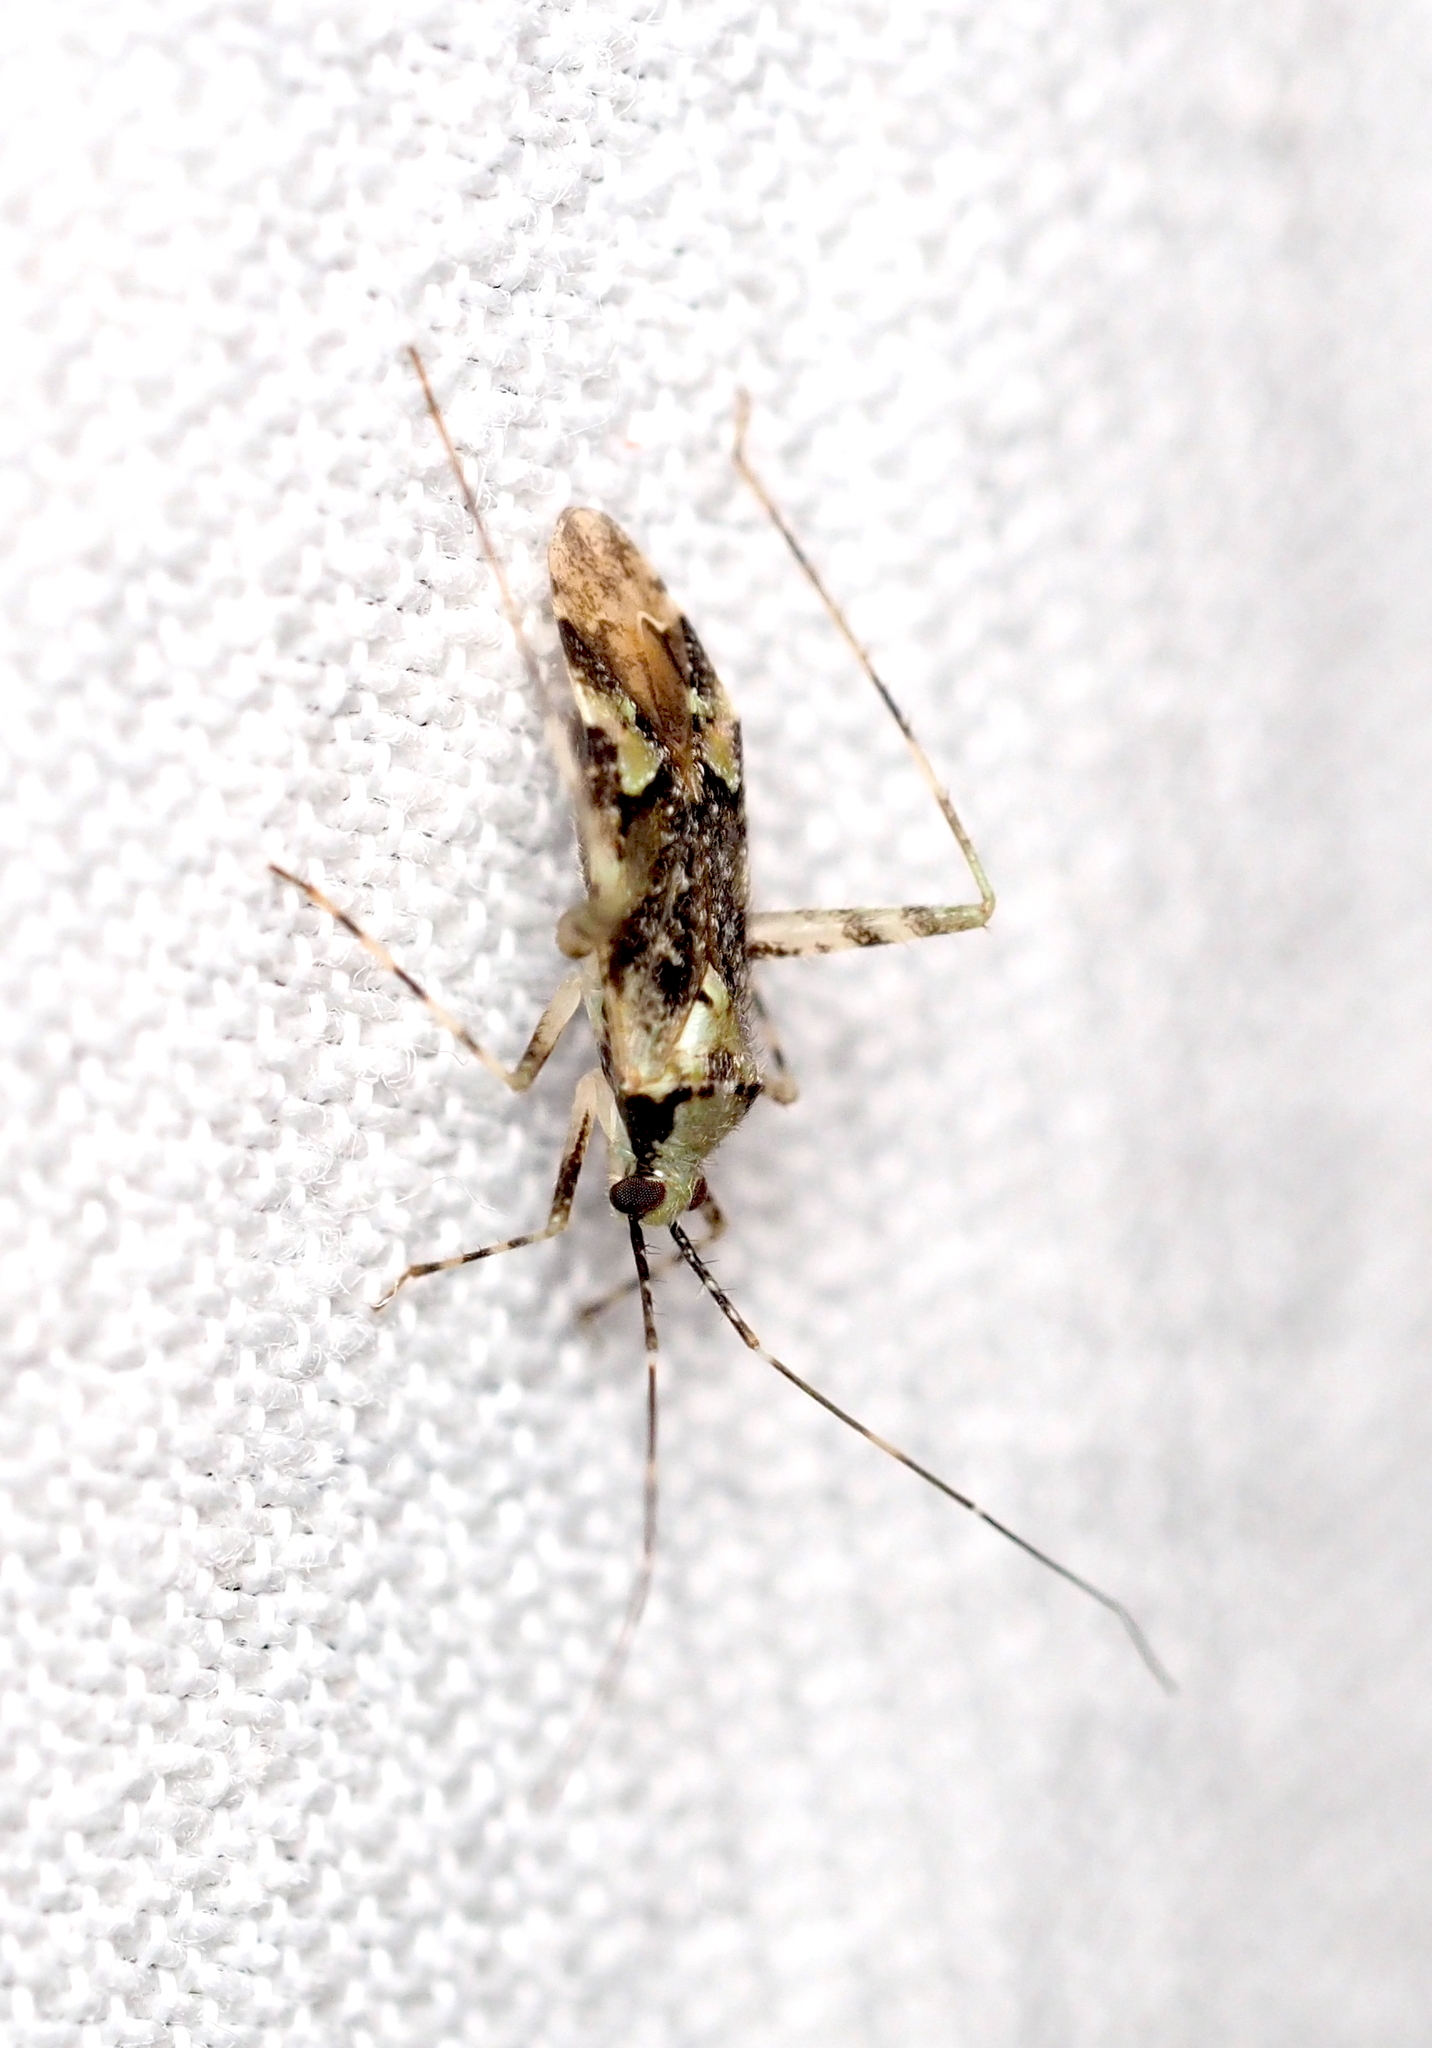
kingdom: Animalia
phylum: Arthropoda
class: Insecta
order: Hemiptera
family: Miridae
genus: Phytocoris
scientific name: Phytocoris tiliae
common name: Plant bug
